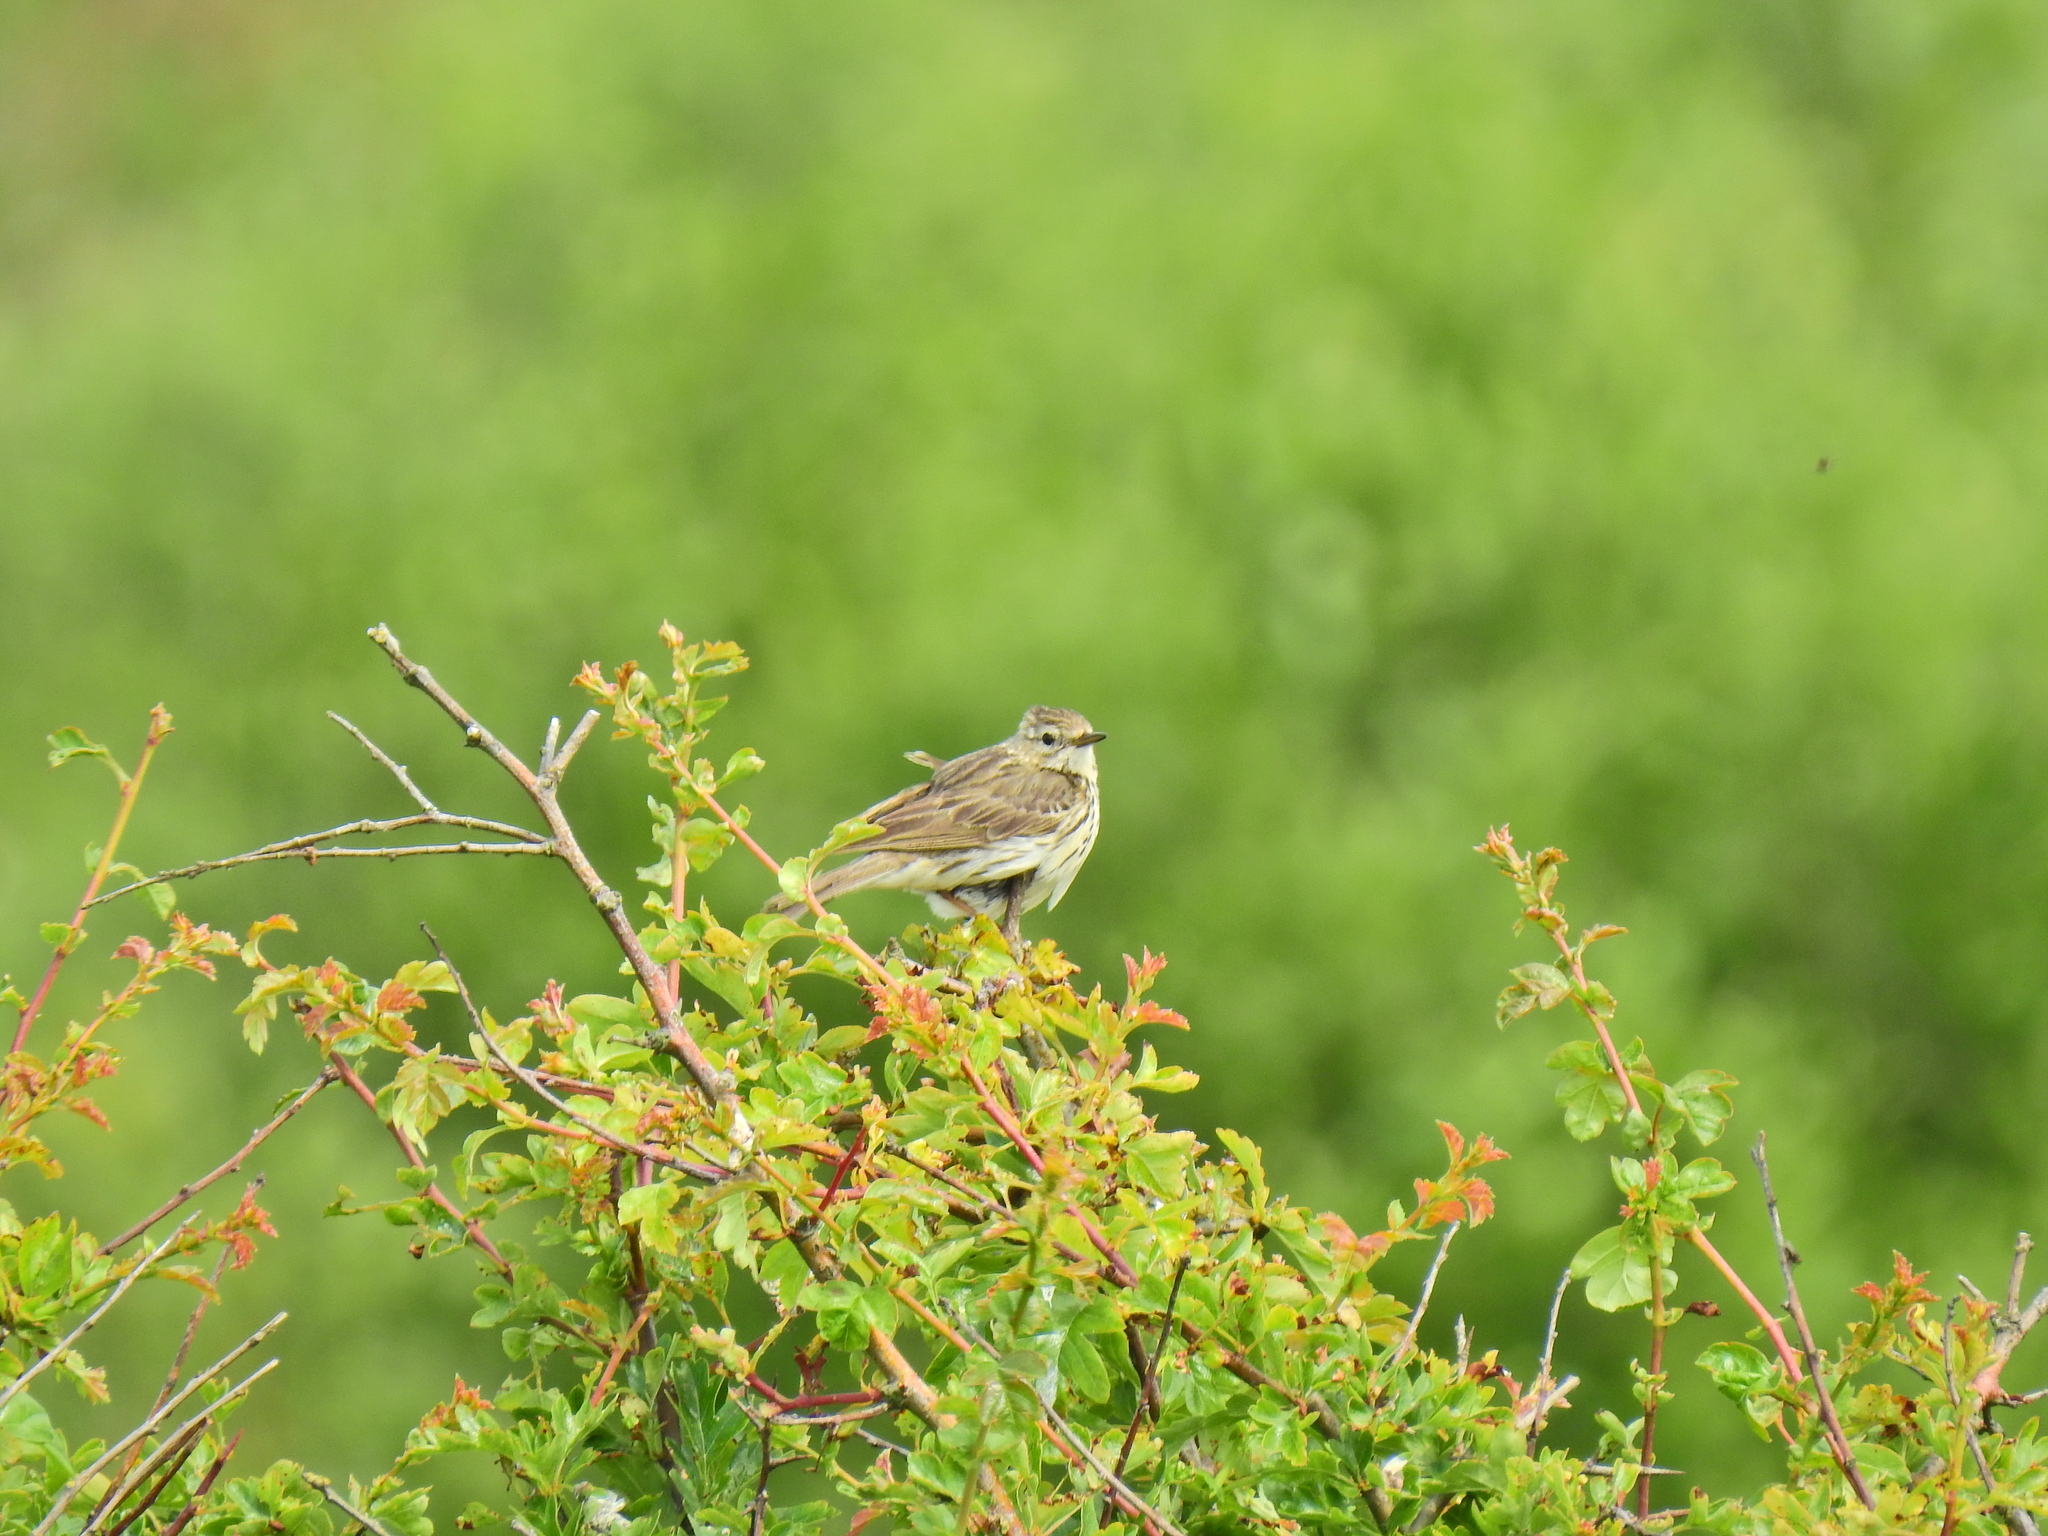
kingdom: Animalia
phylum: Chordata
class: Aves
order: Passeriformes
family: Motacillidae
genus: Anthus
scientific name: Anthus pratensis
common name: Meadow pipit
